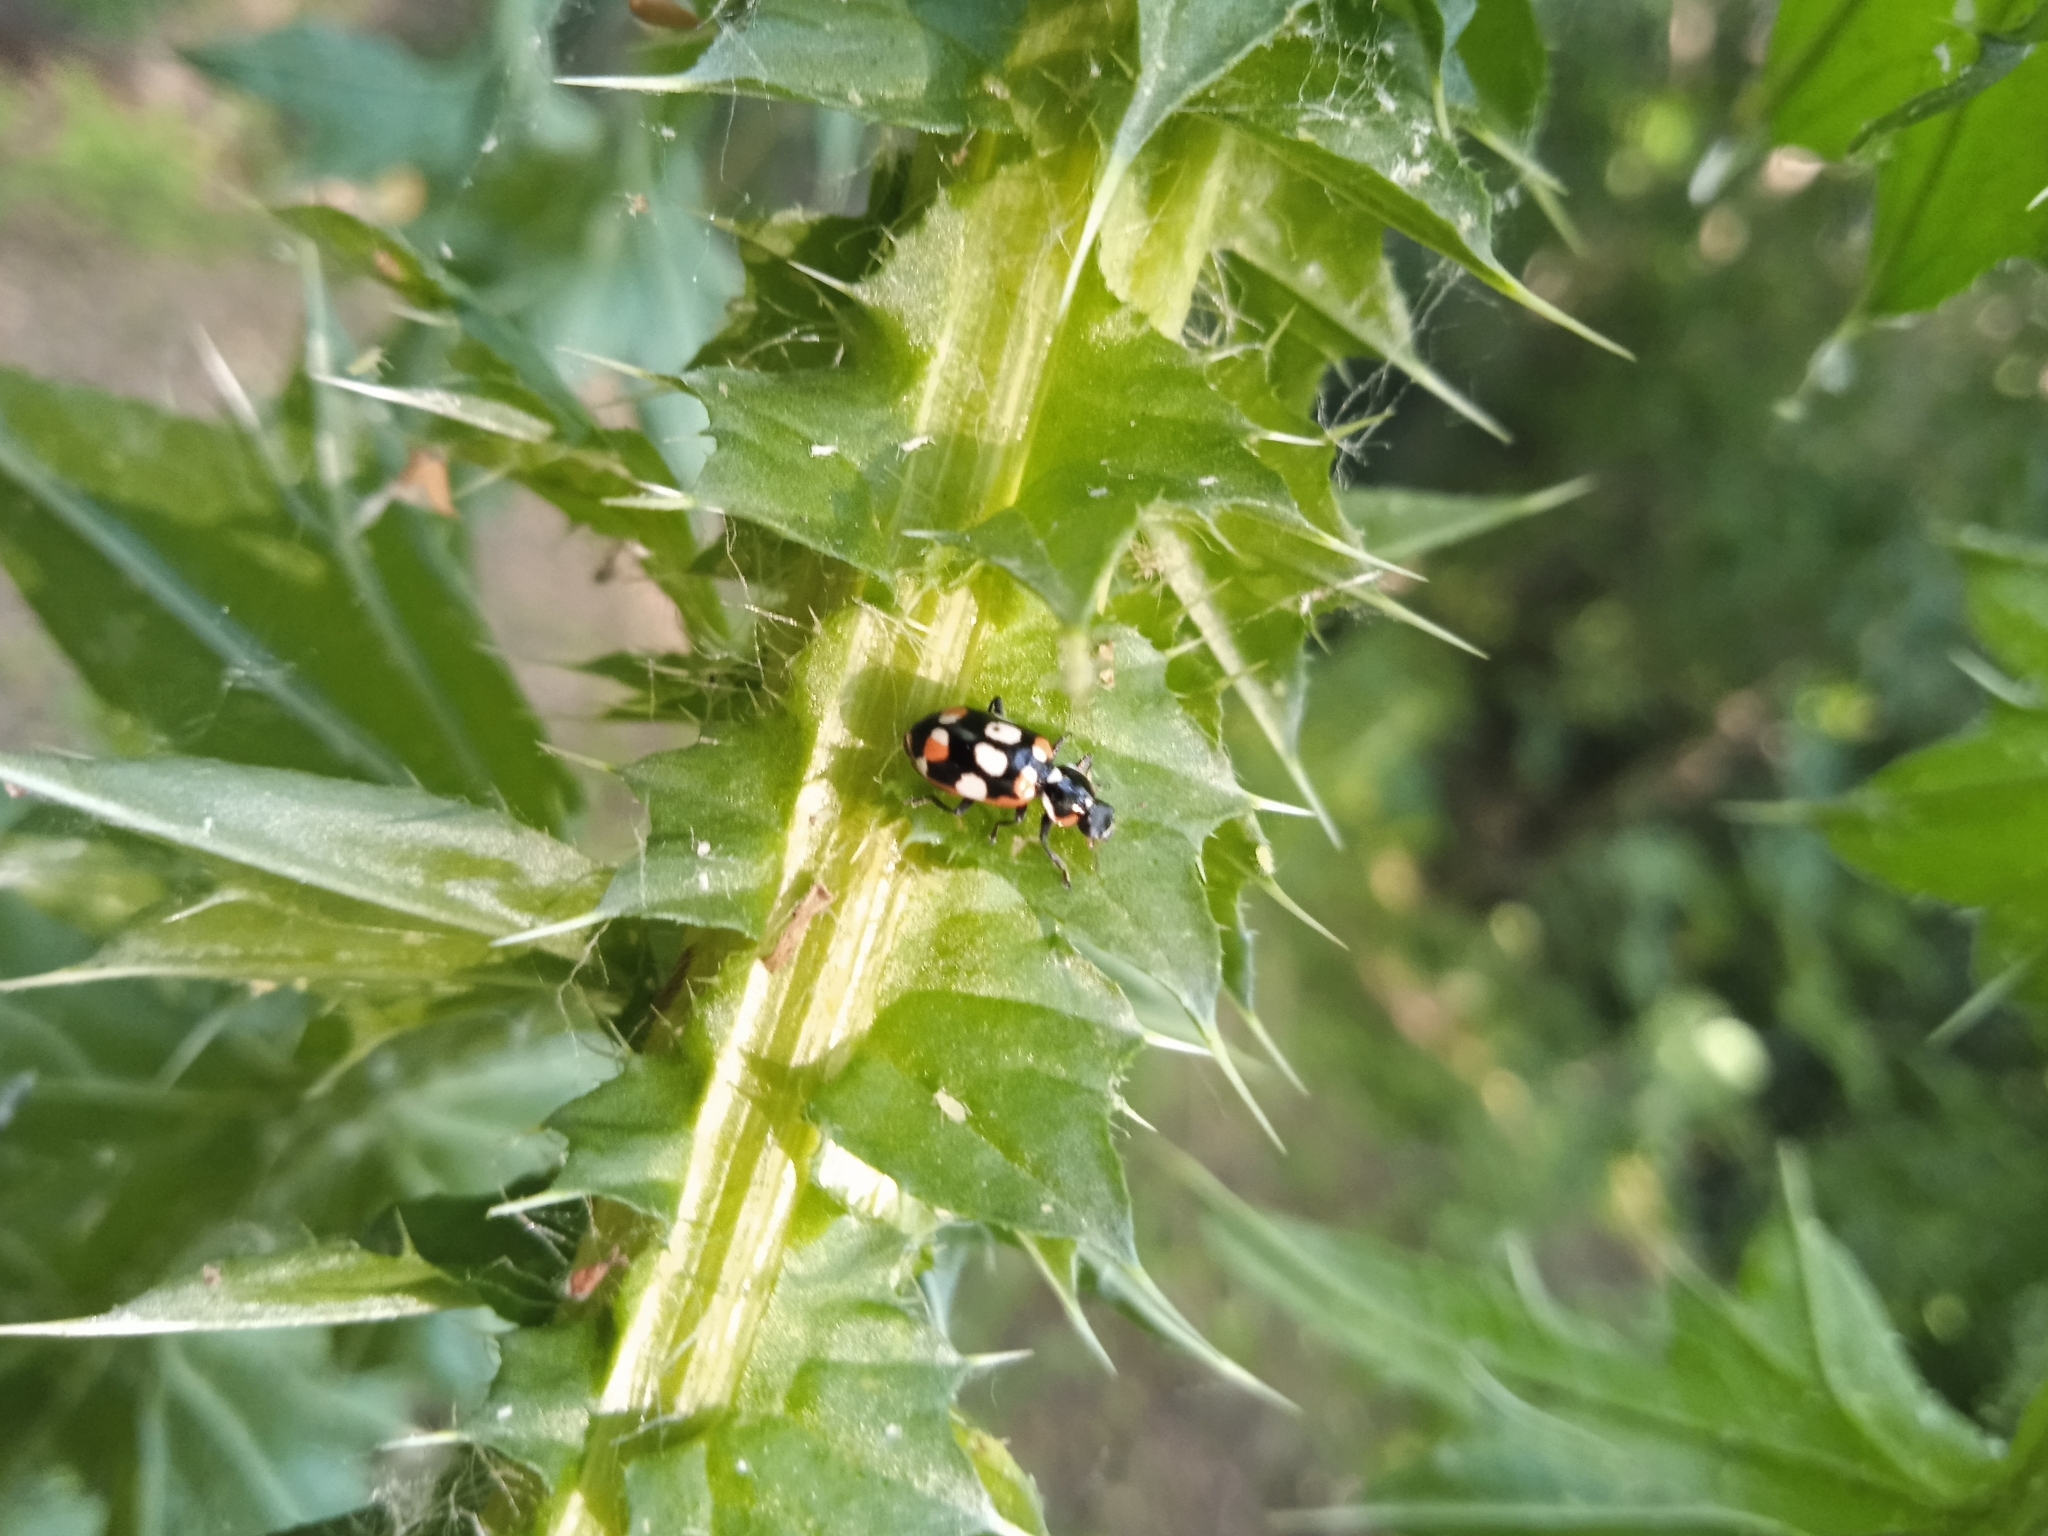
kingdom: Animalia
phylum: Arthropoda
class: Insecta
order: Coleoptera
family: Coccinellidae
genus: Eriopis
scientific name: Eriopis connexa
